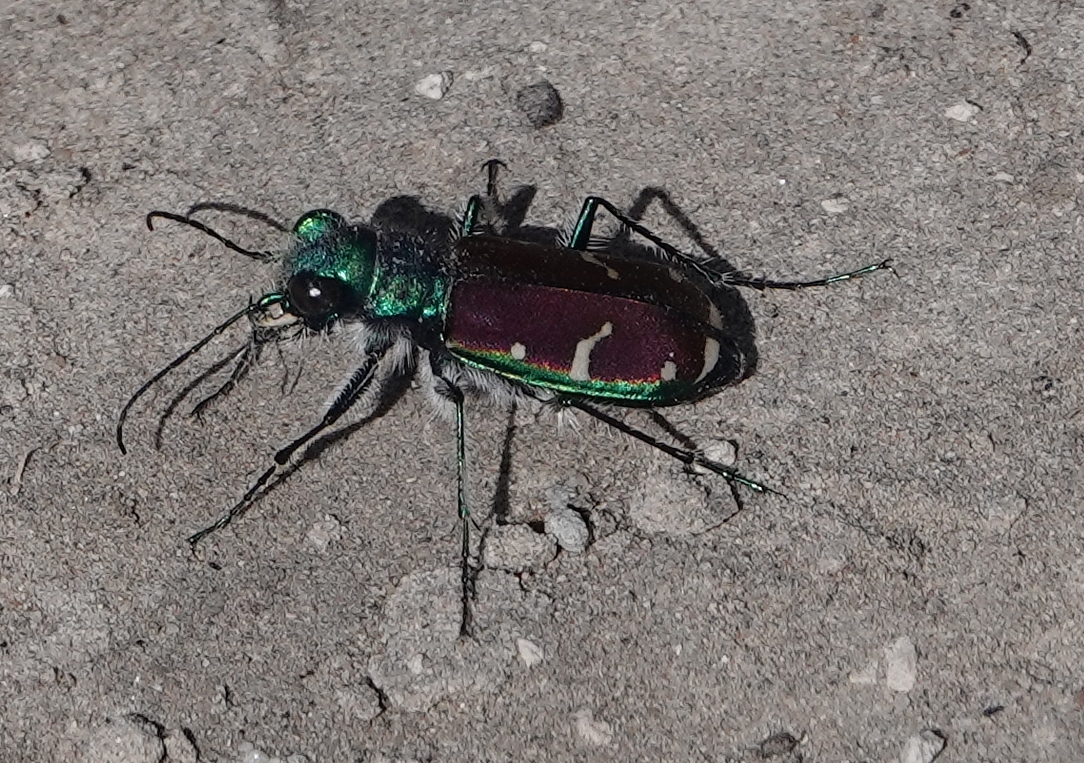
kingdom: Animalia
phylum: Arthropoda
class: Insecta
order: Coleoptera
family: Carabidae
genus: Cicindela
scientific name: Cicindela splendida
